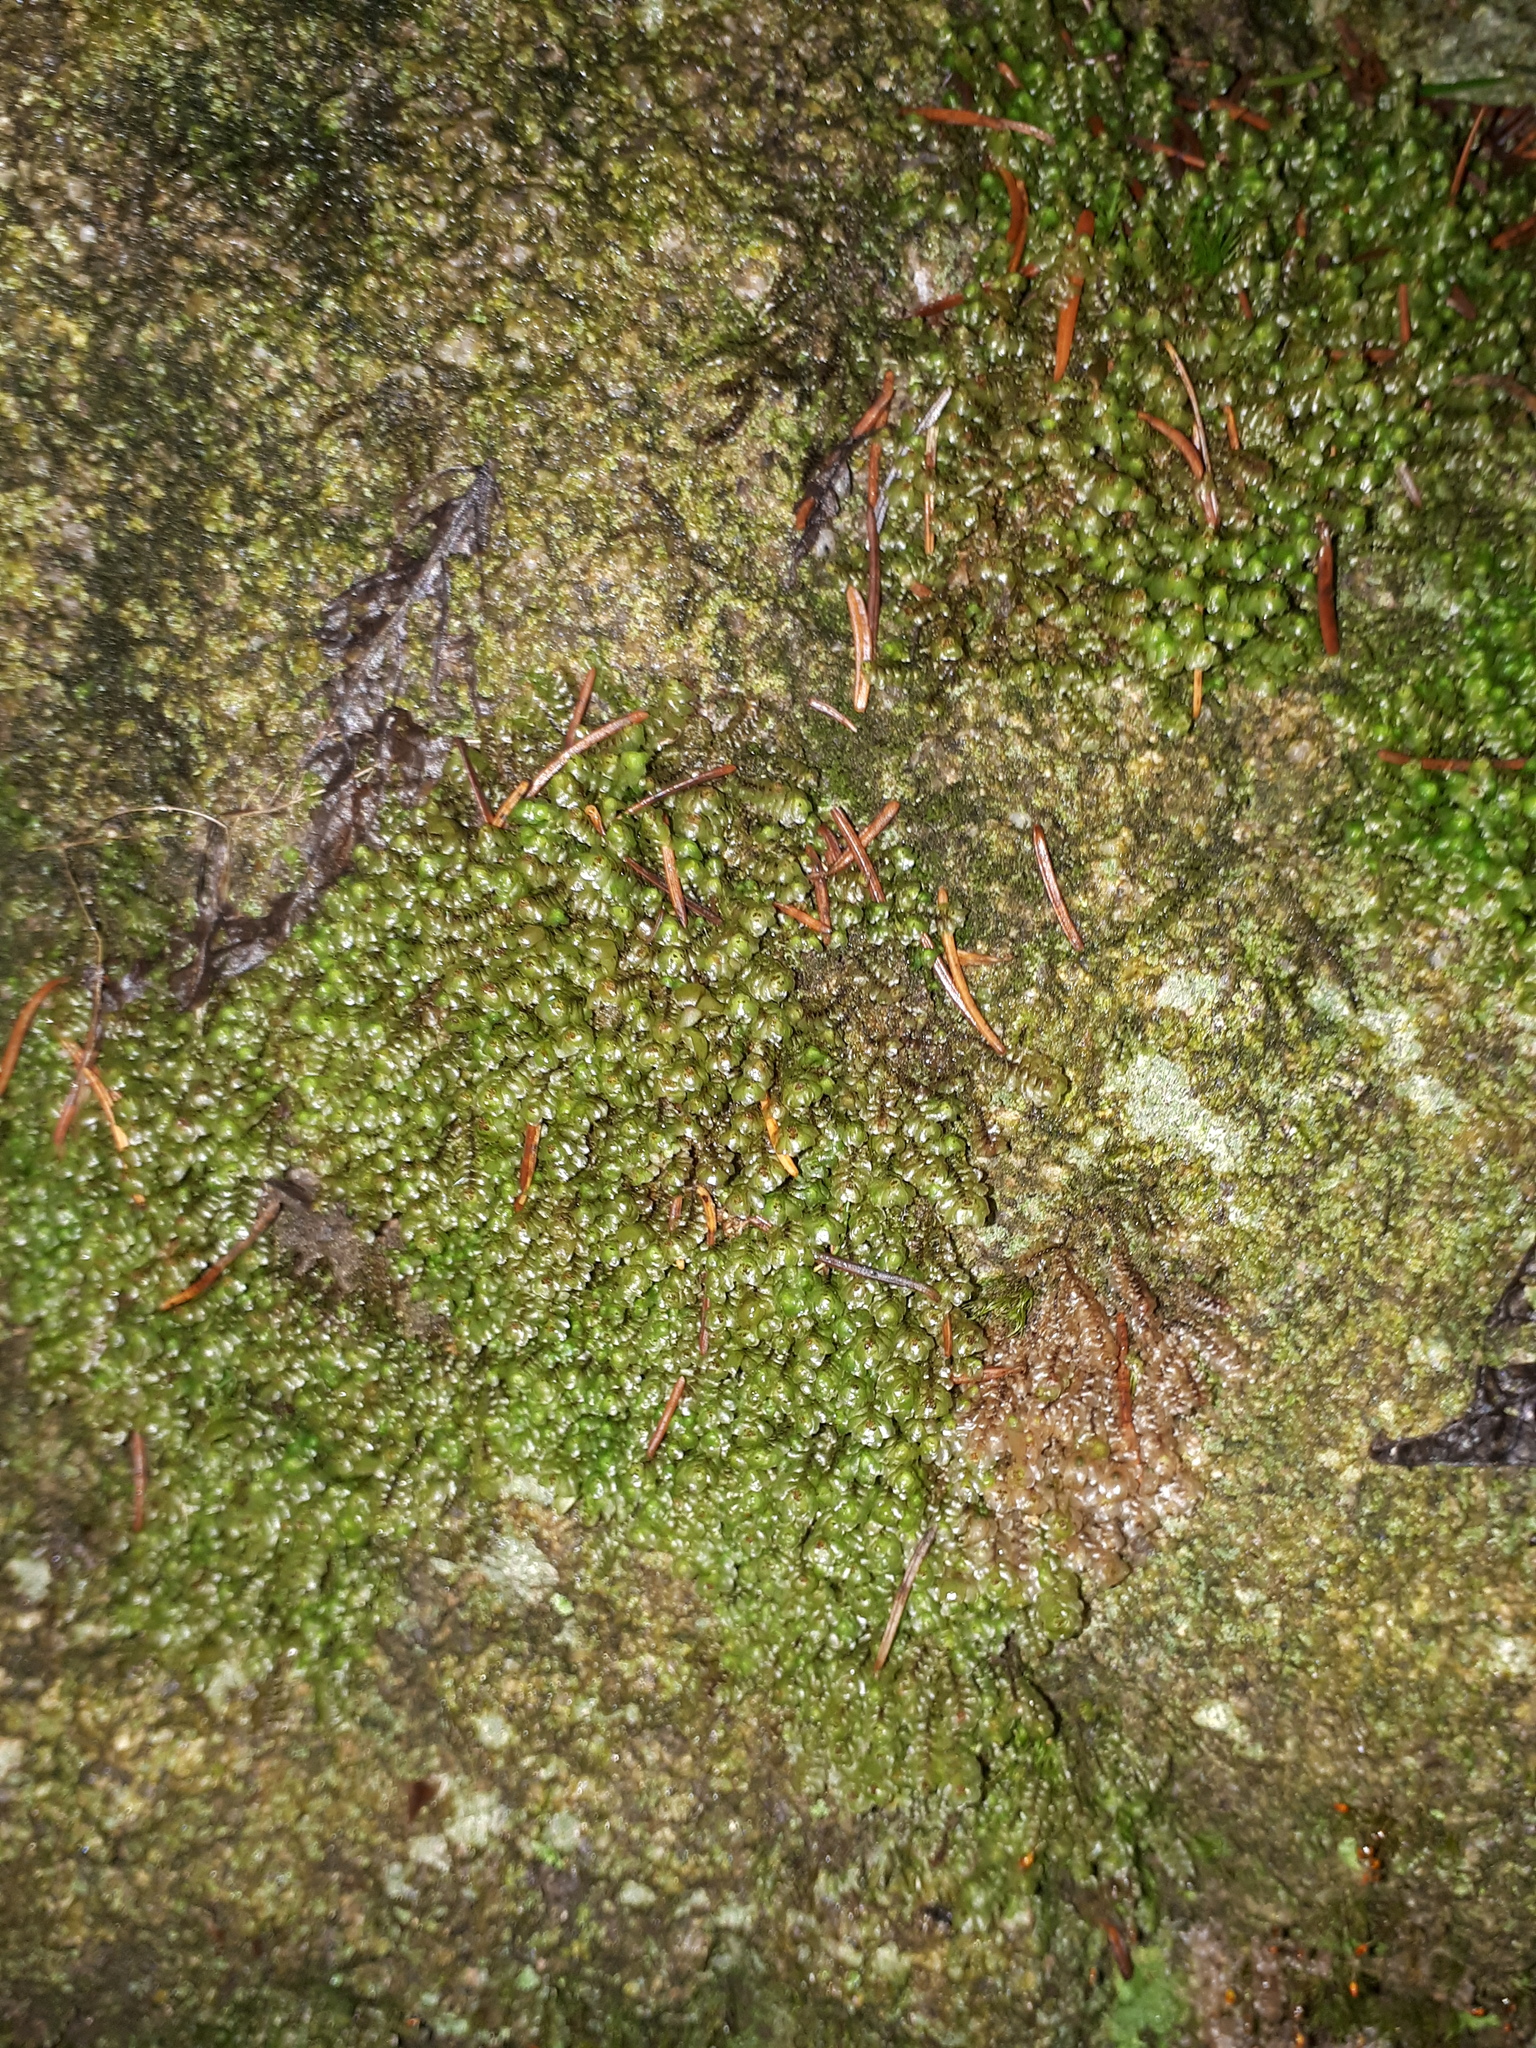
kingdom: Plantae
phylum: Marchantiophyta
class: Jungermanniopsida
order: Jungermanniales
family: Scapaniaceae
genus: Scapania
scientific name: Scapania nemorea
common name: Grove earwort
